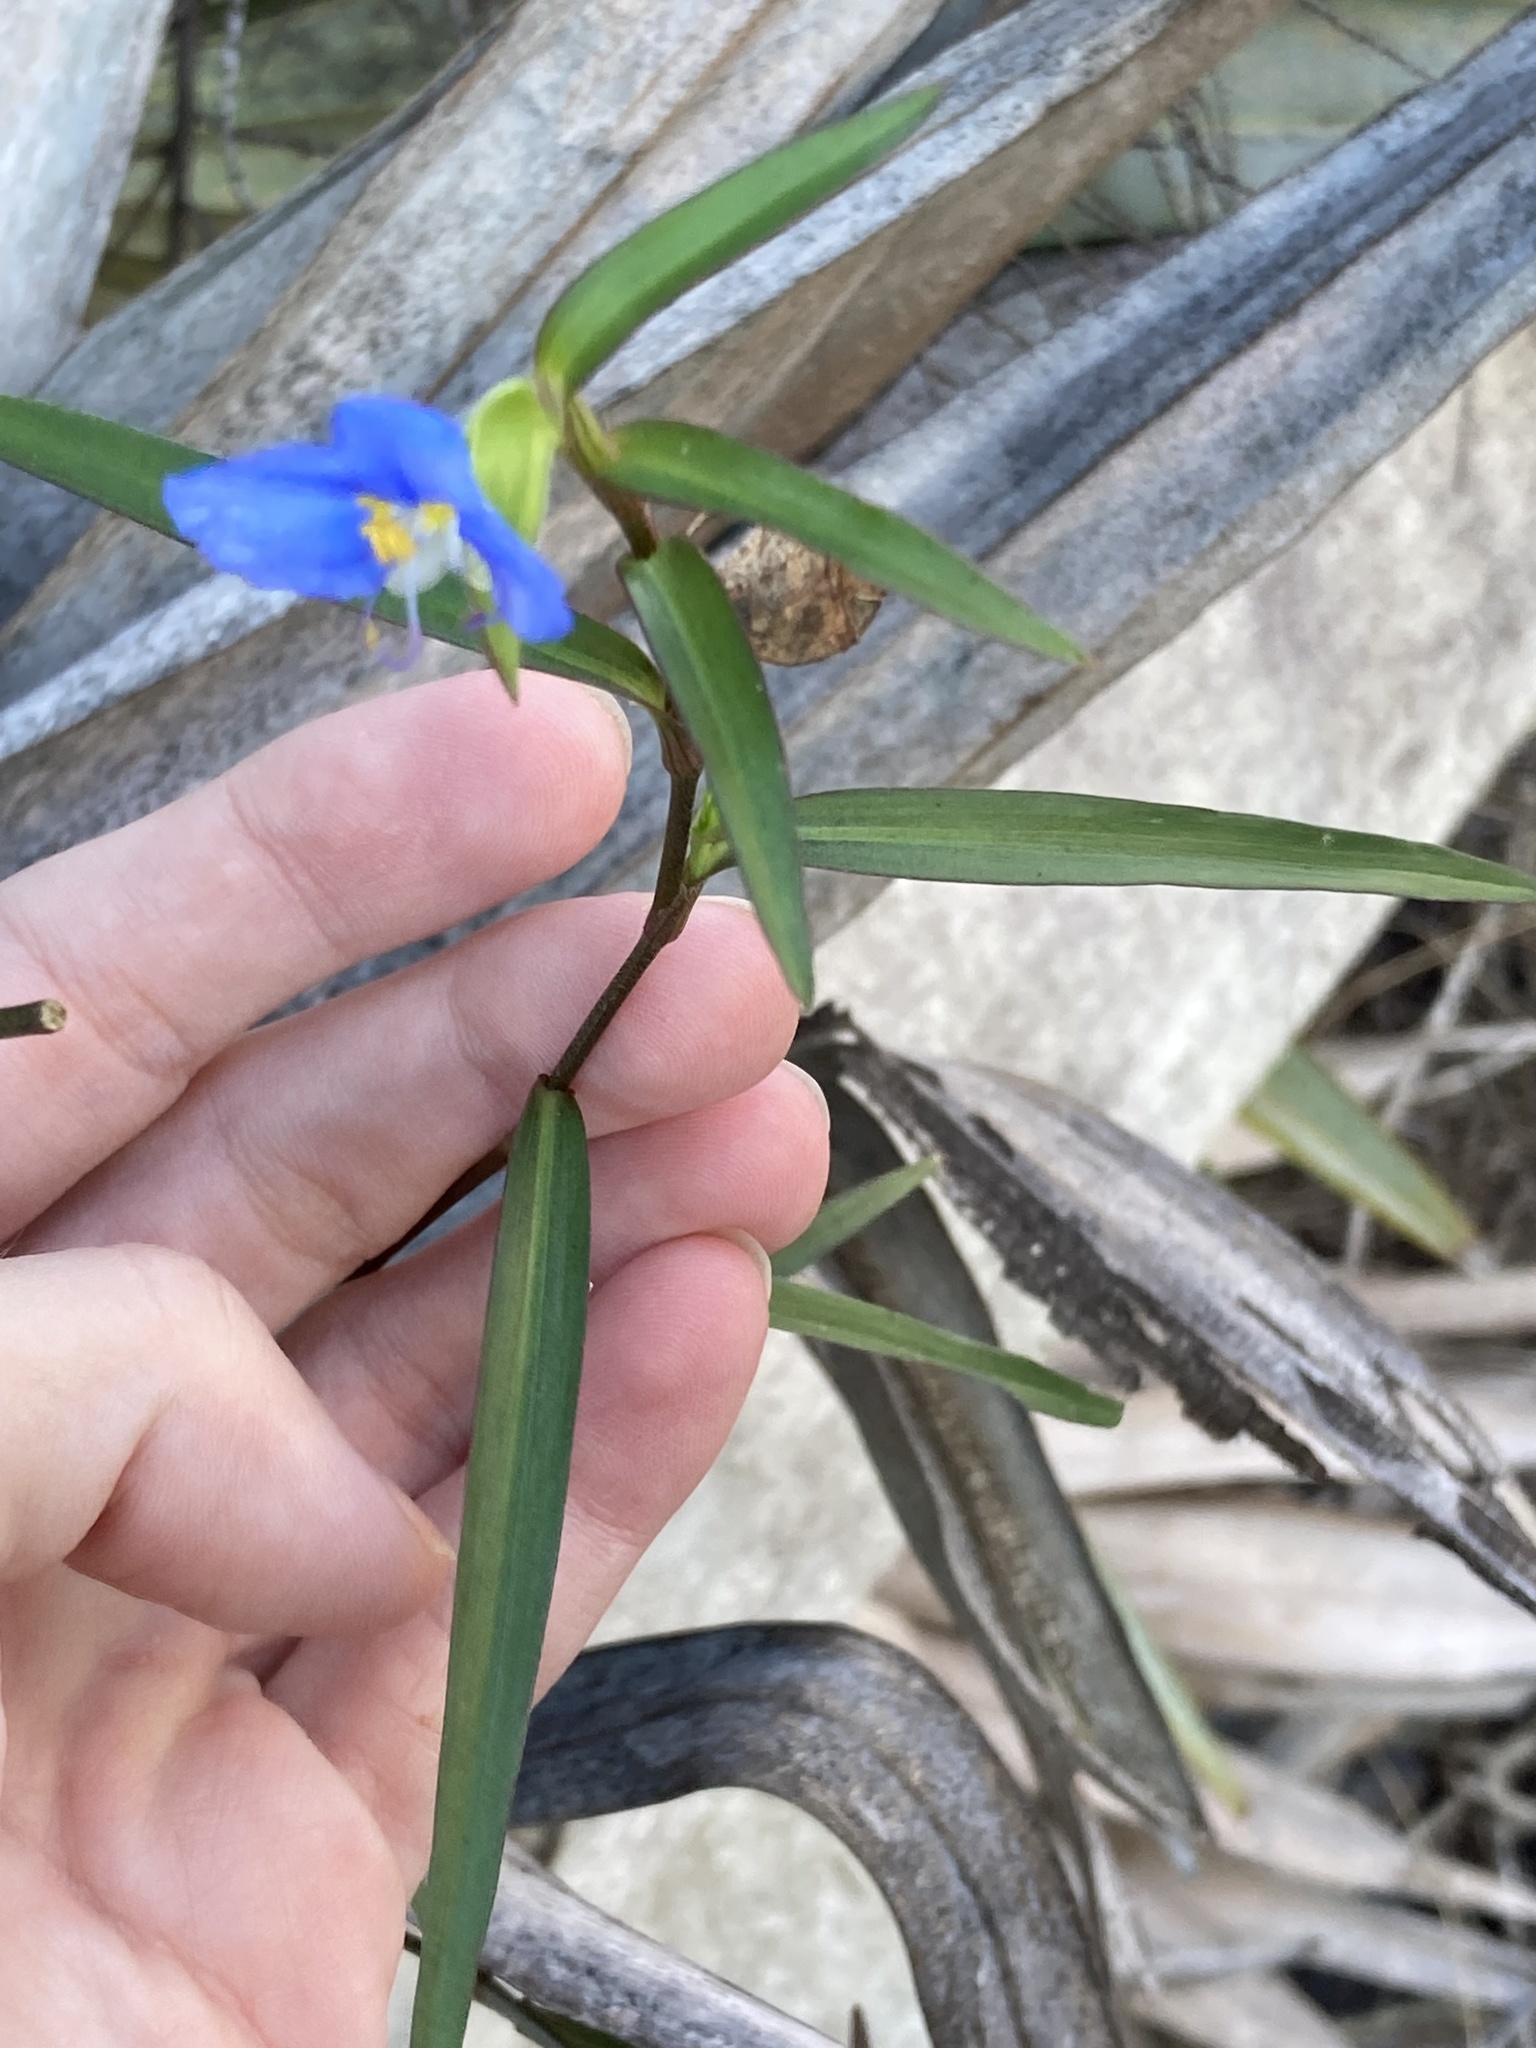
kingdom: Plantae
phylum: Tracheophyta
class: Liliopsida
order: Commelinales
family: Commelinaceae
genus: Commelina
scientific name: Commelina erecta
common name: Blousel blommetjie
